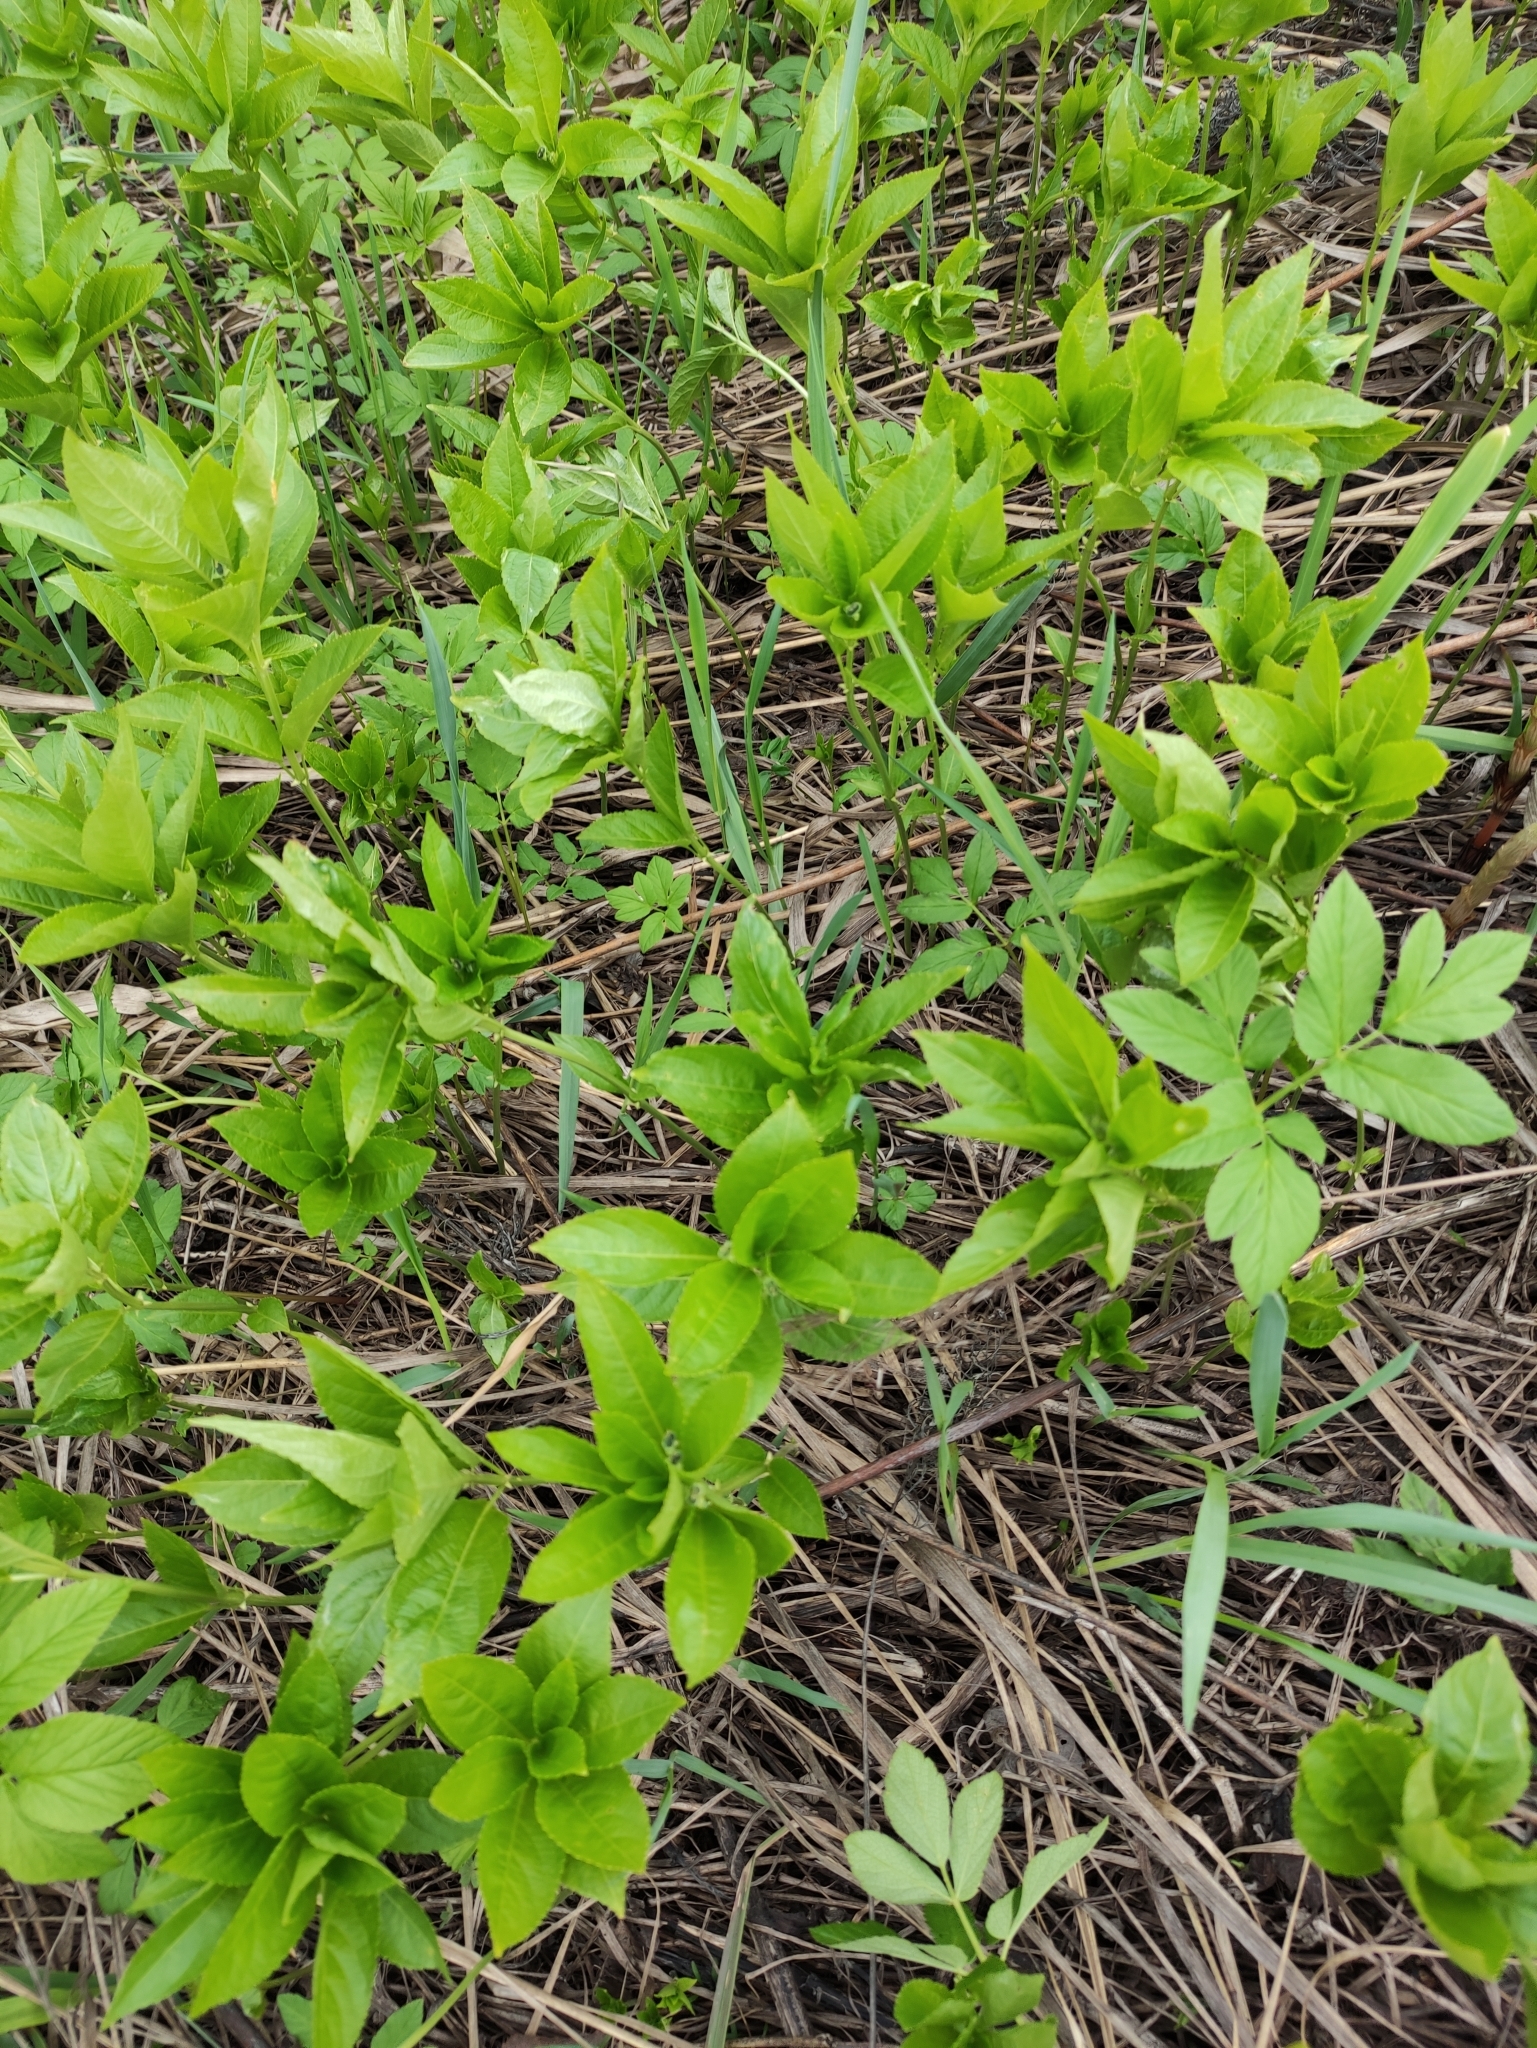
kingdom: Plantae
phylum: Tracheophyta
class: Magnoliopsida
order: Malpighiales
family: Euphorbiaceae
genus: Mercurialis
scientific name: Mercurialis perennis
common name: Dog mercury
